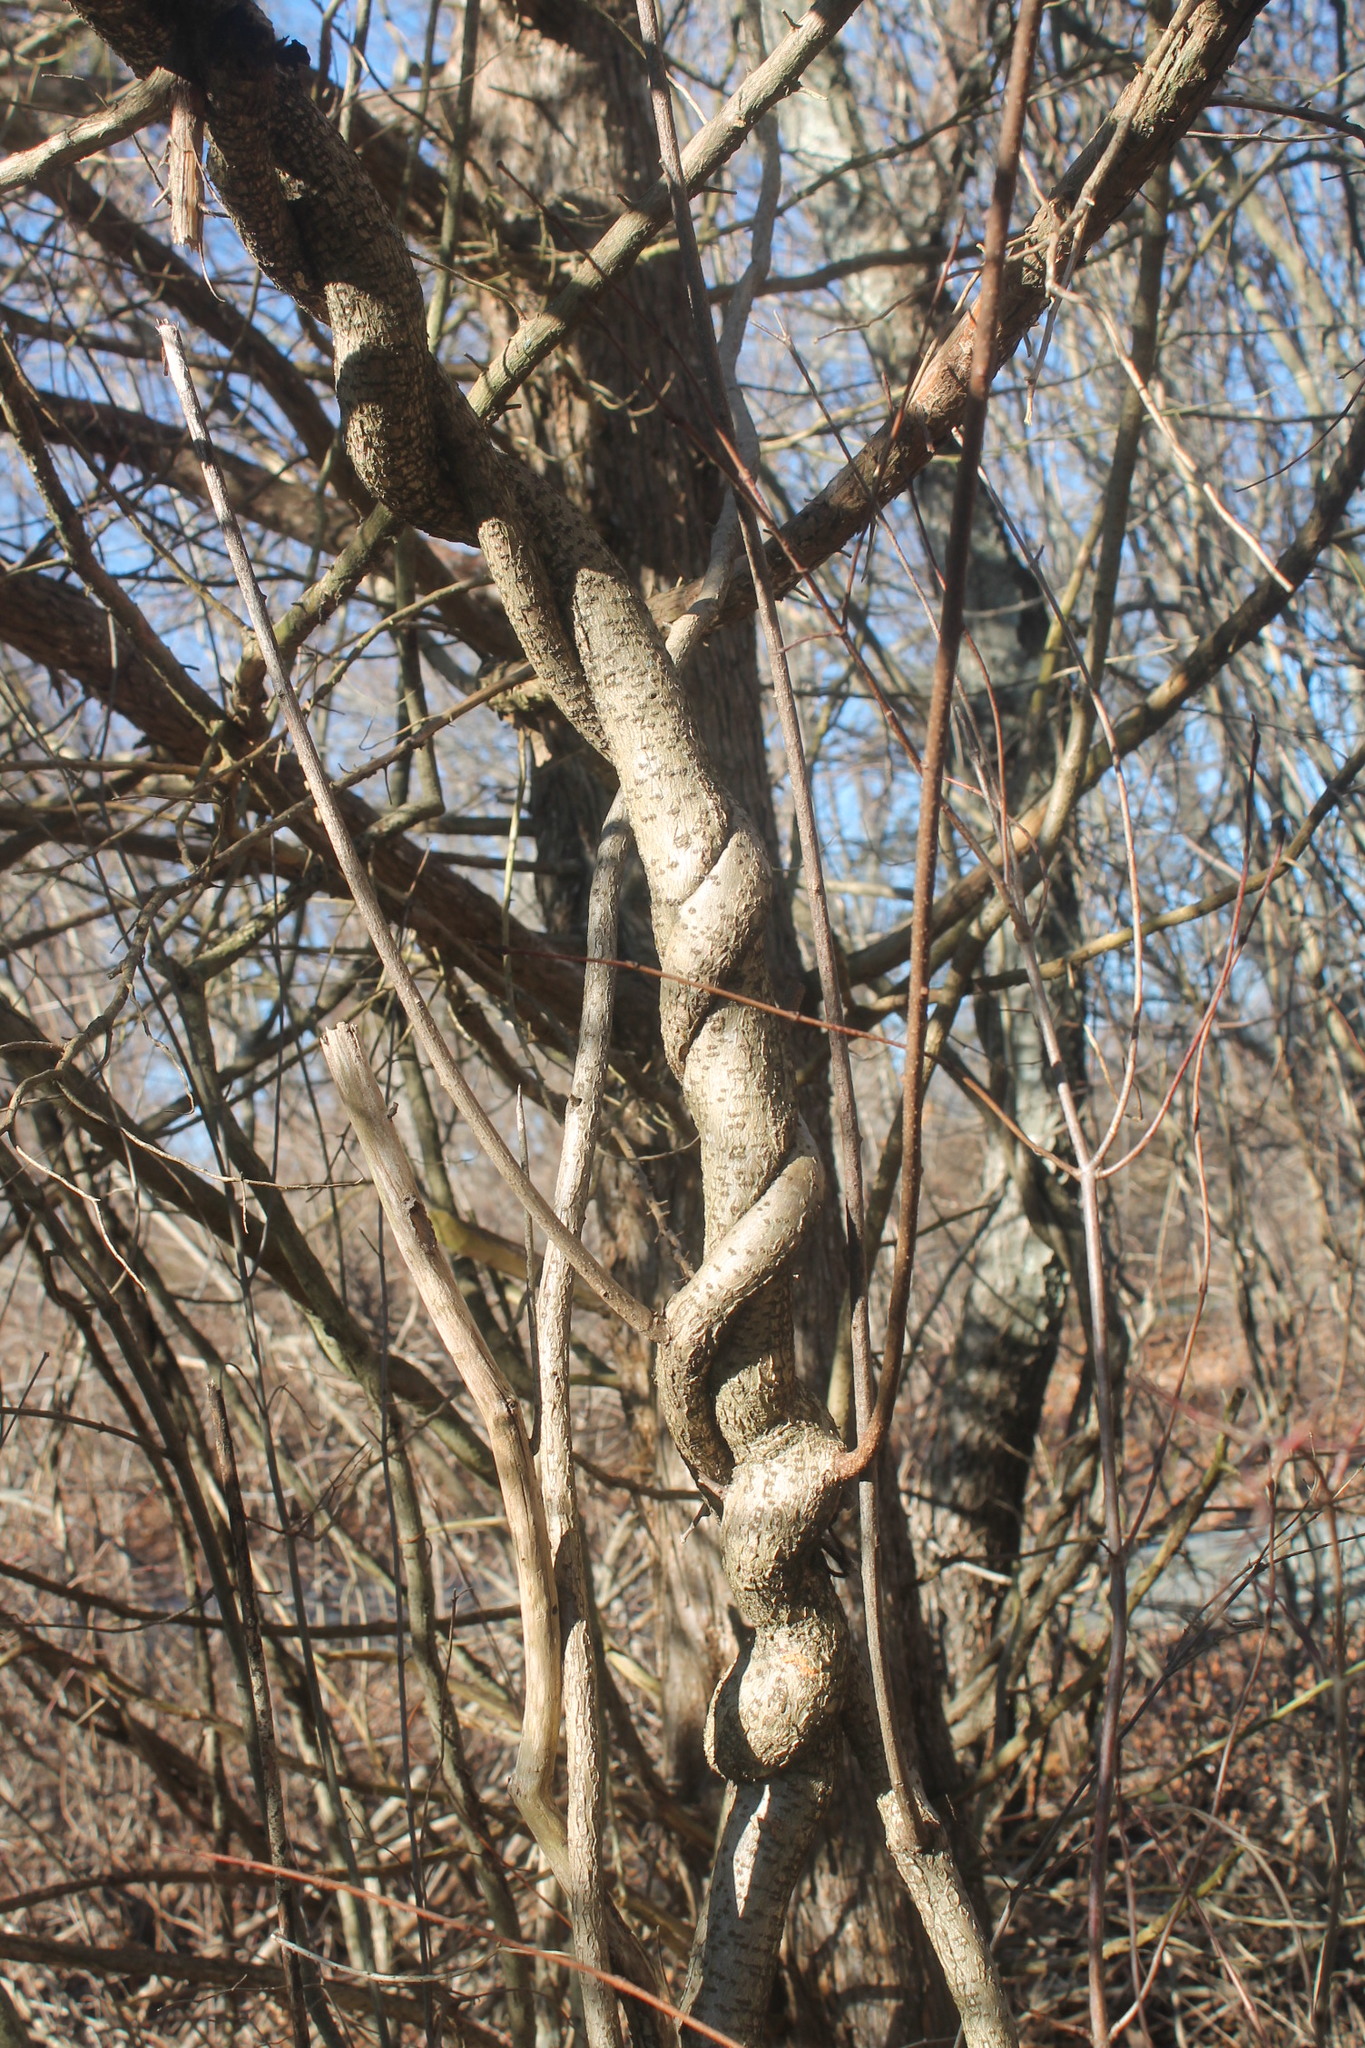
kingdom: Plantae
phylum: Tracheophyta
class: Magnoliopsida
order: Celastrales
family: Celastraceae
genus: Celastrus
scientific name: Celastrus orbiculatus
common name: Oriental bittersweet
